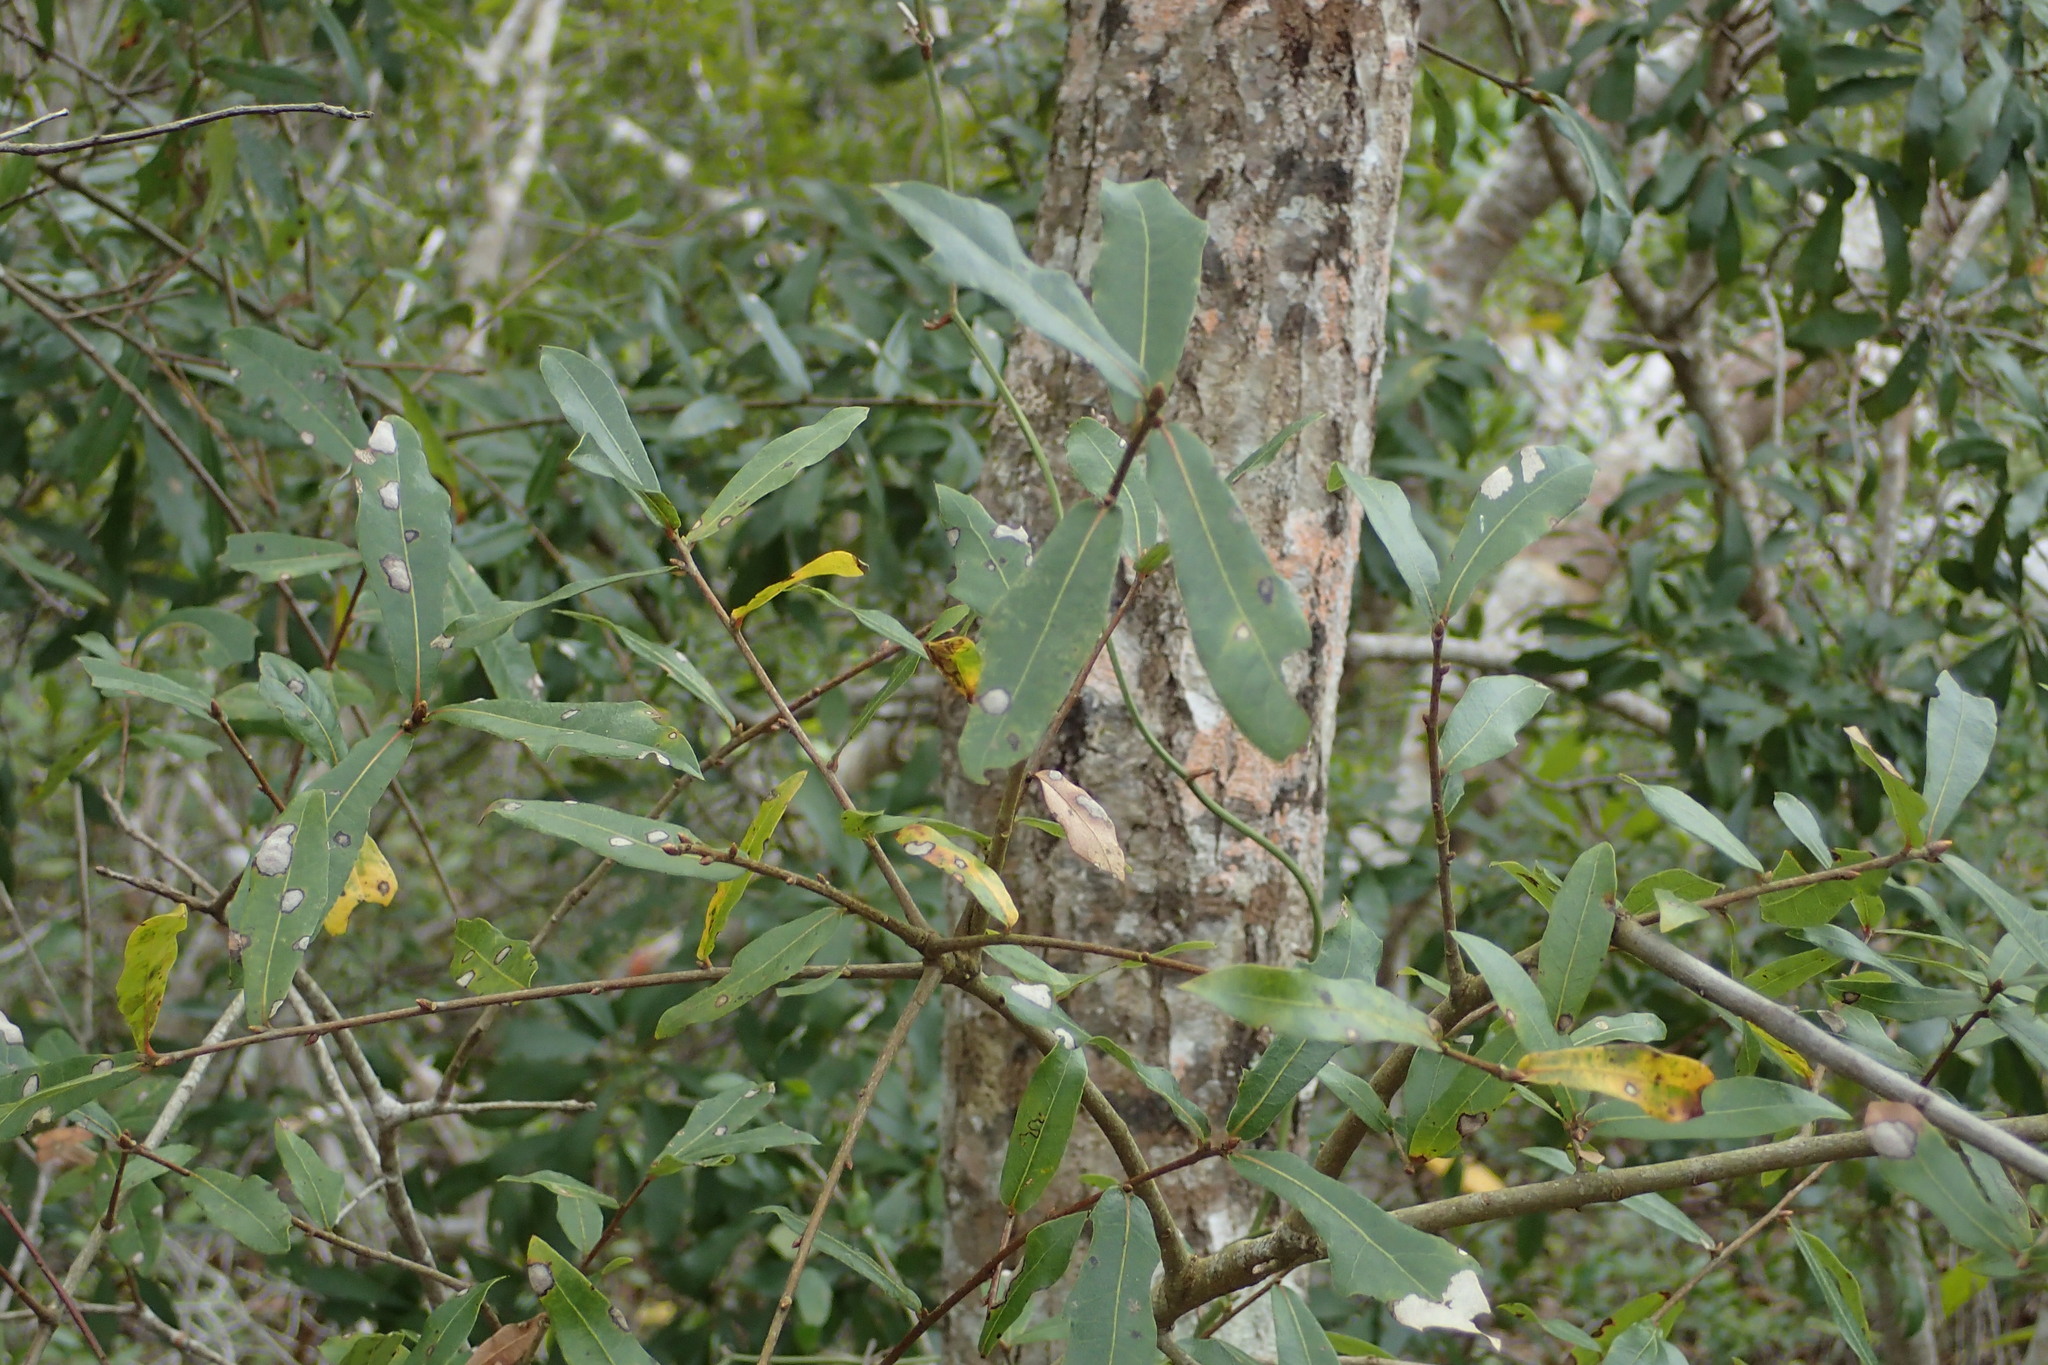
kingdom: Plantae
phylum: Tracheophyta
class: Magnoliopsida
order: Fagales
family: Fagaceae
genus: Quercus
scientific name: Quercus hemisphaerica
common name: Darlington oak
